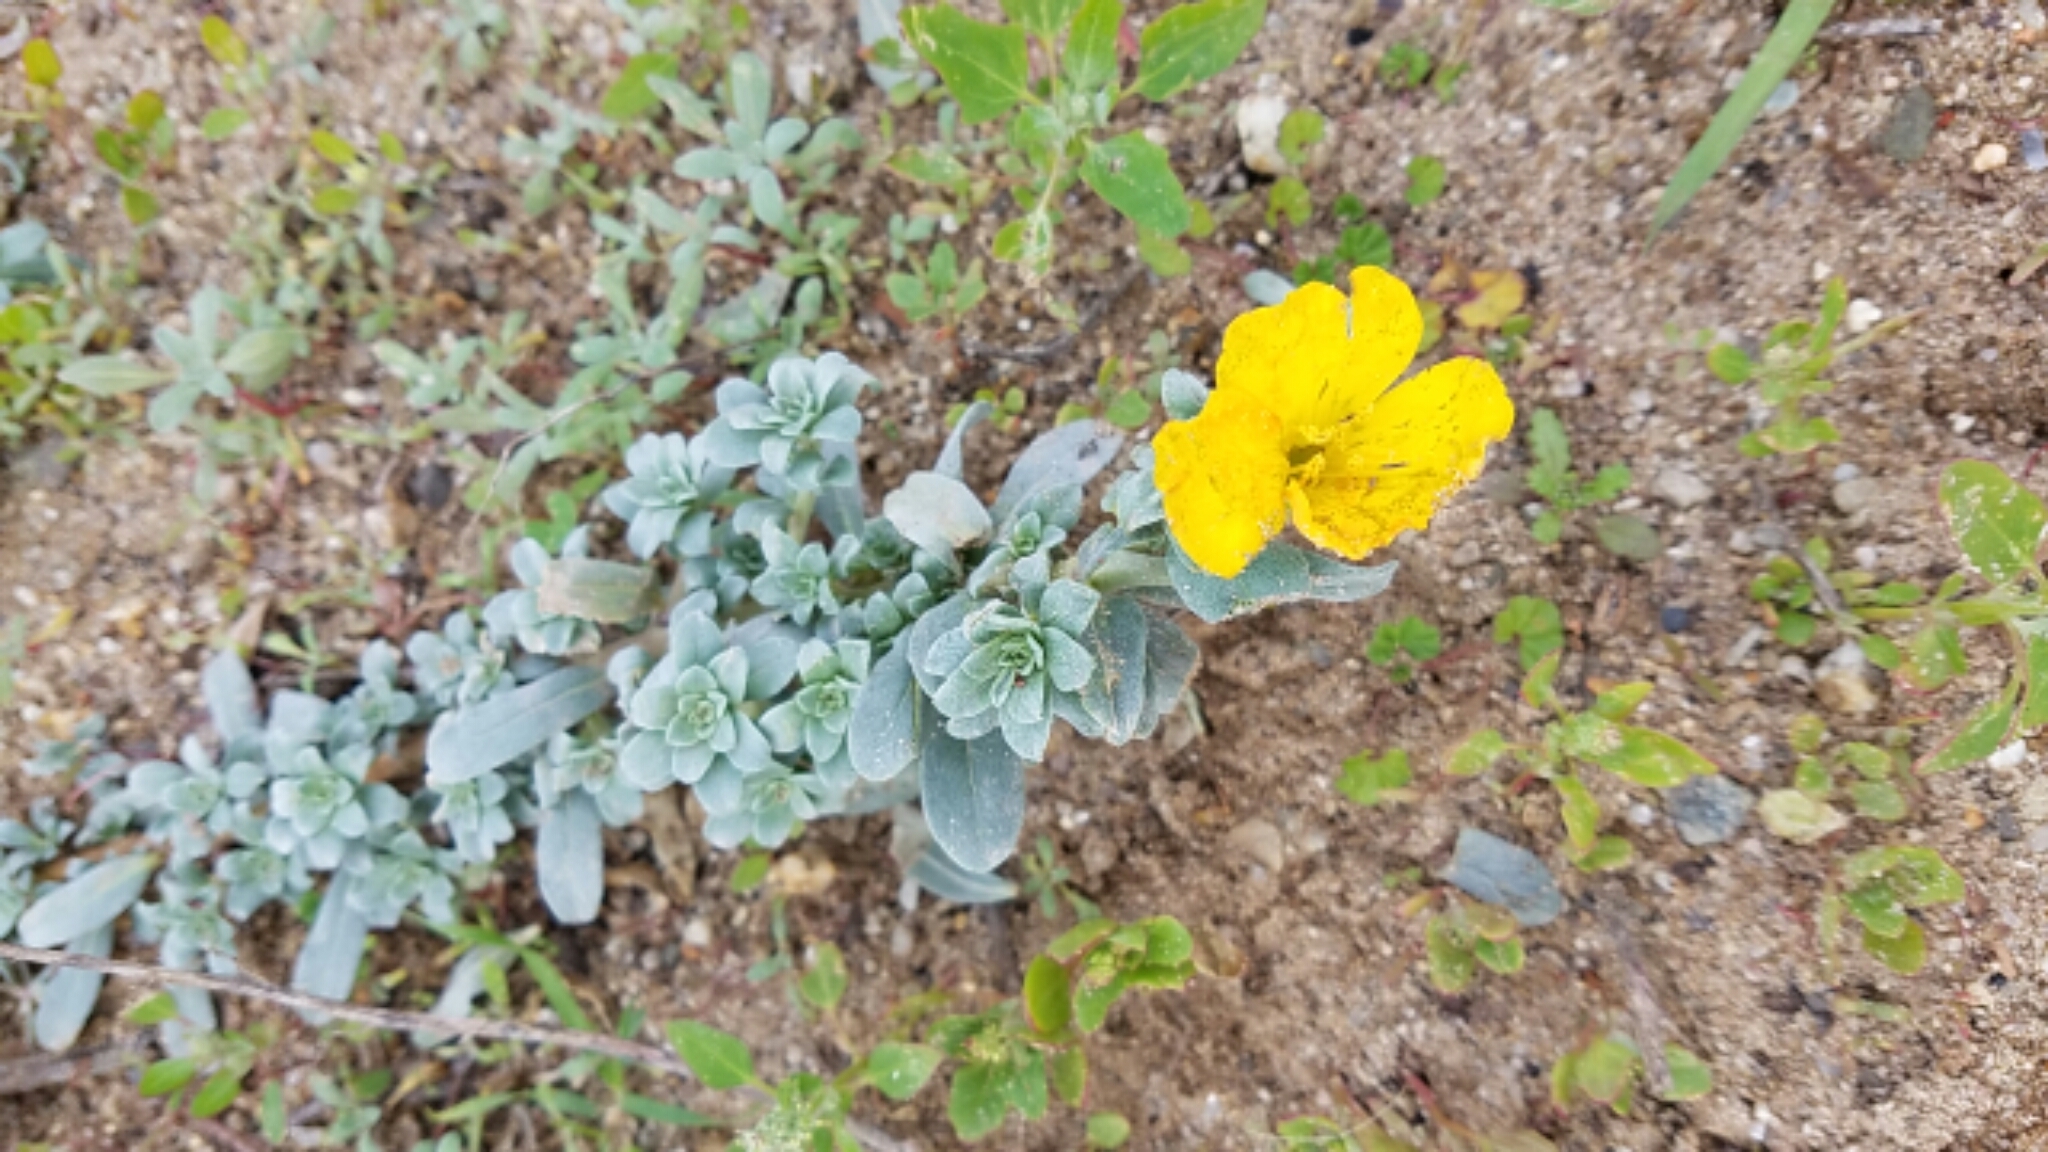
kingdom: Plantae
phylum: Tracheophyta
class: Magnoliopsida
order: Myrtales
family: Onagraceae
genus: Camissoniopsis
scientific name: Camissoniopsis cheiranthifolia
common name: Beach suncup
